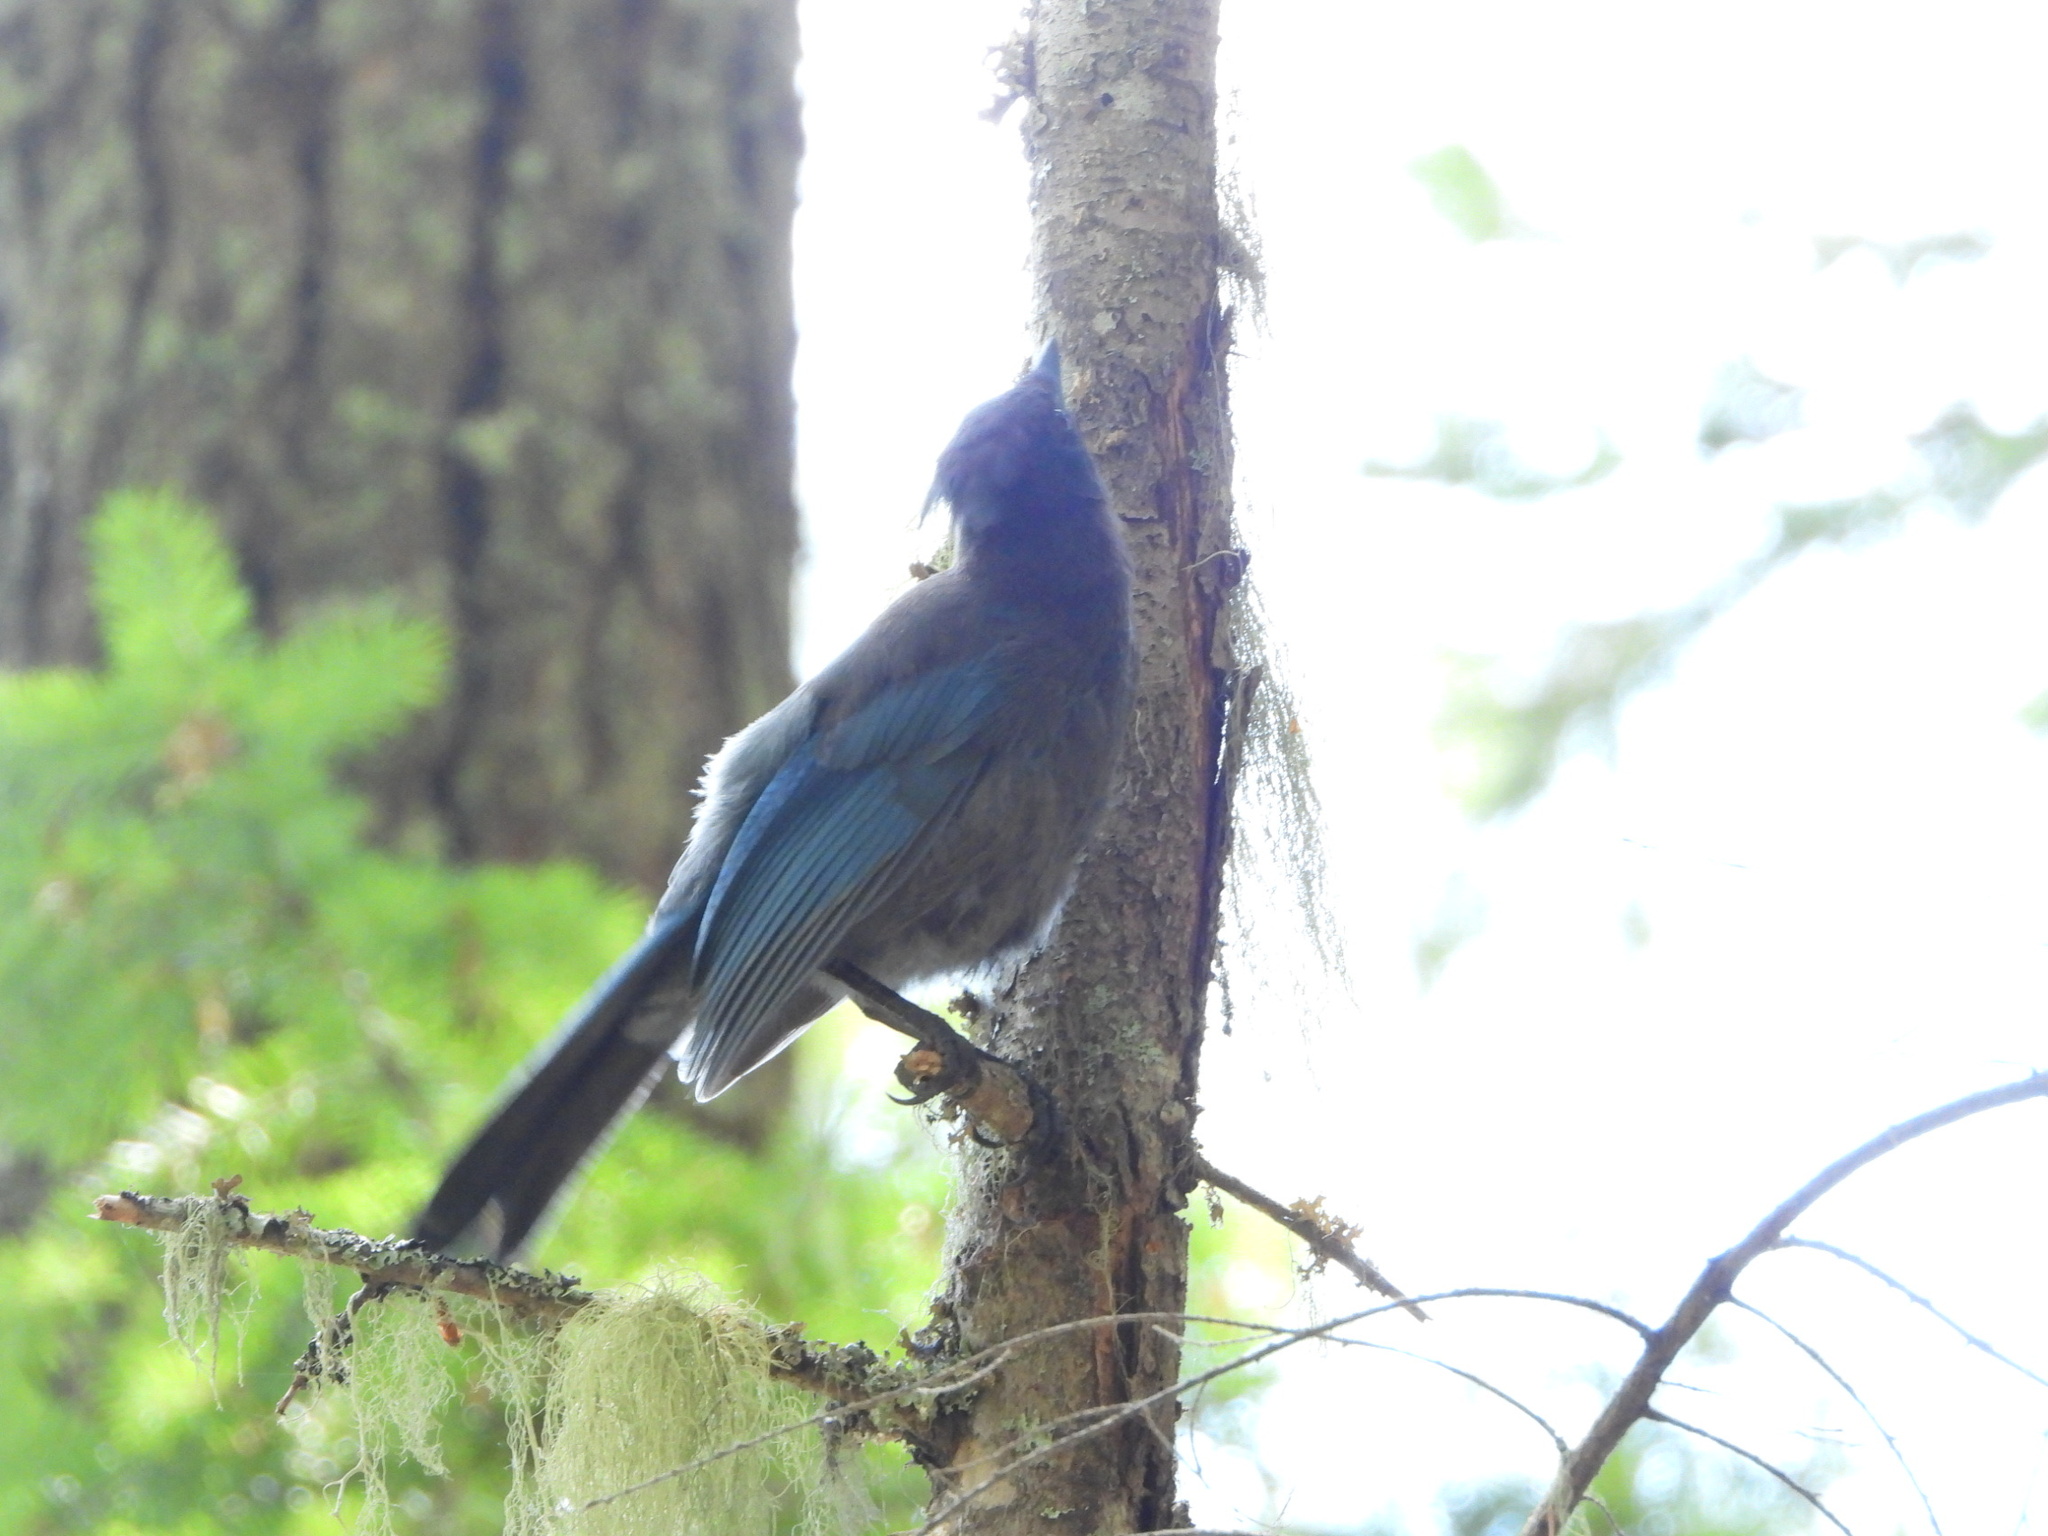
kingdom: Animalia
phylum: Chordata
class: Aves
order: Passeriformes
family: Corvidae
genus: Cyanocitta
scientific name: Cyanocitta stelleri
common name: Steller's jay
